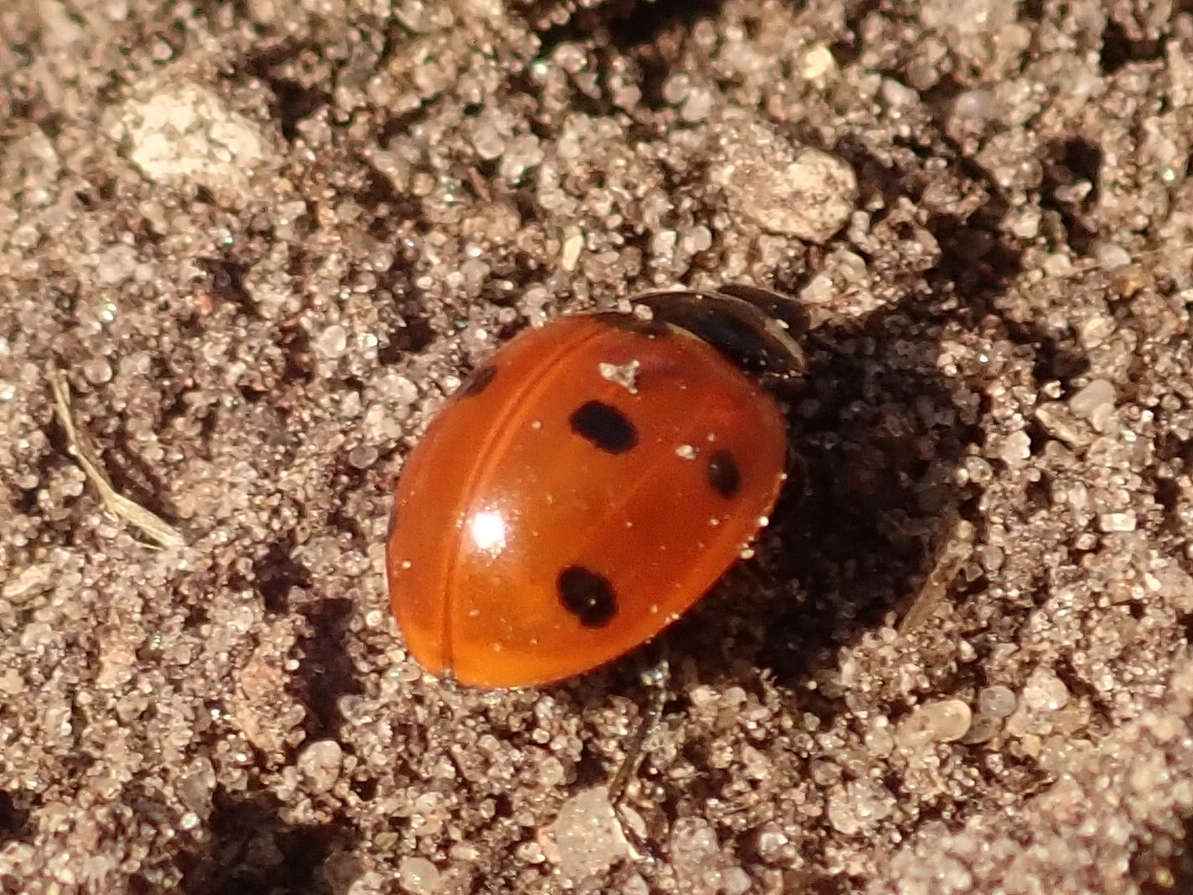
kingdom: Animalia
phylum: Arthropoda
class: Insecta
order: Coleoptera
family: Coccinellidae
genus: Coccinella
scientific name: Coccinella septempunctata
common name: Sevenspotted lady beetle
